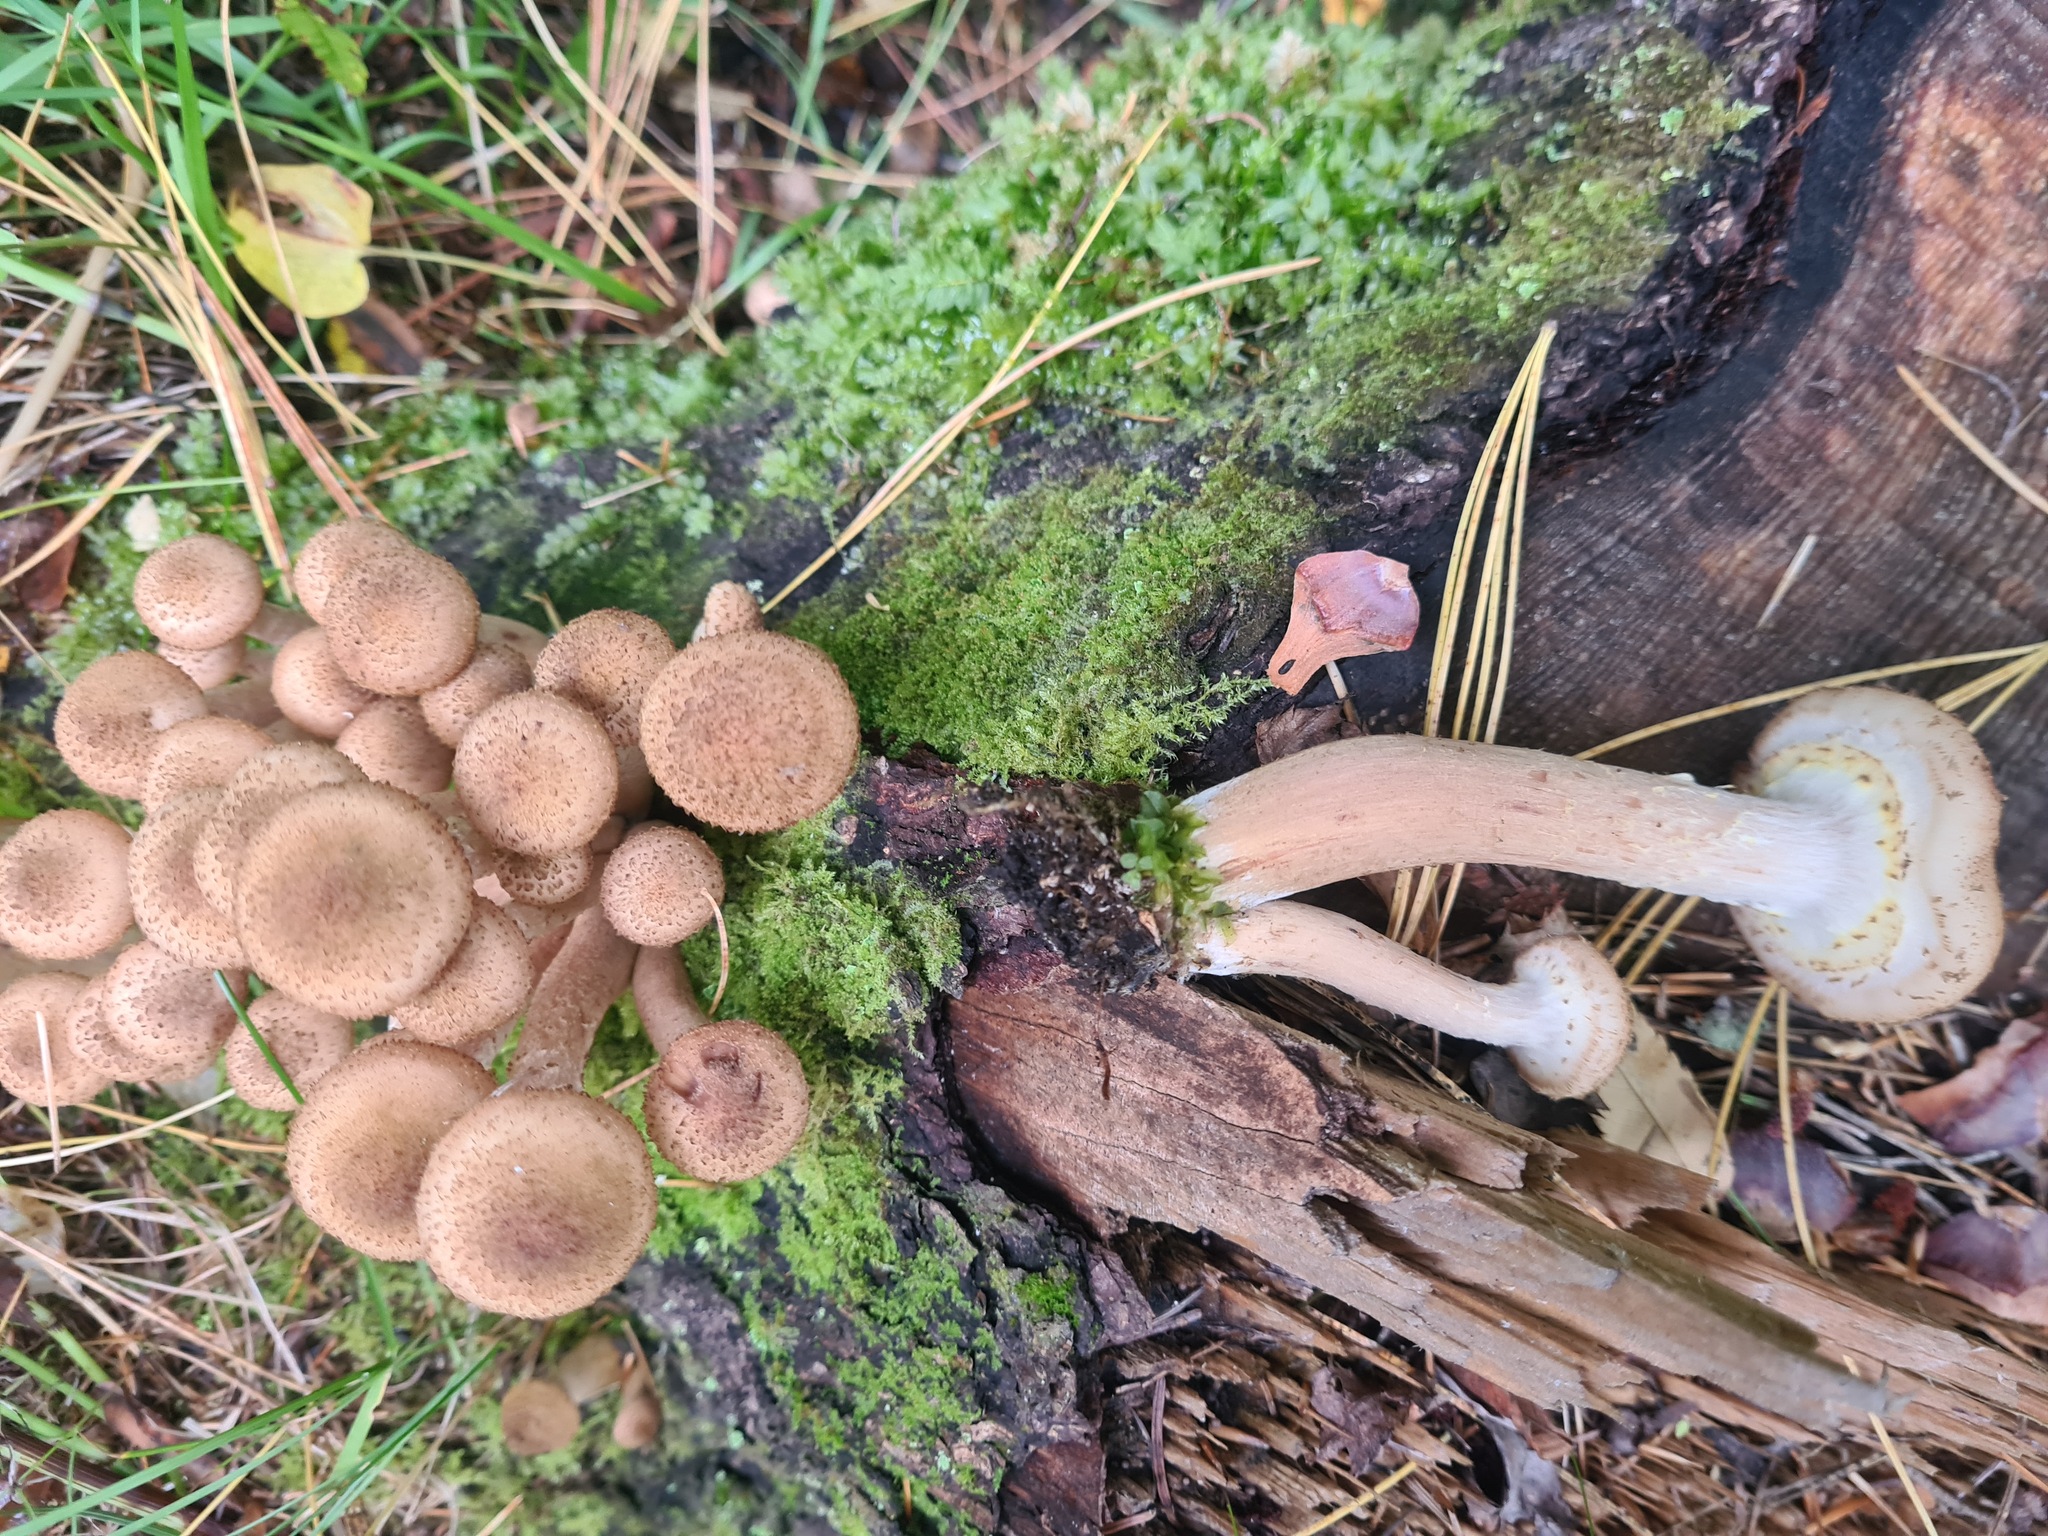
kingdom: Fungi
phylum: Basidiomycota
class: Agaricomycetes
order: Agaricales
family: Physalacriaceae
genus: Armillaria
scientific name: Armillaria borealis
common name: Northern honey fungus
